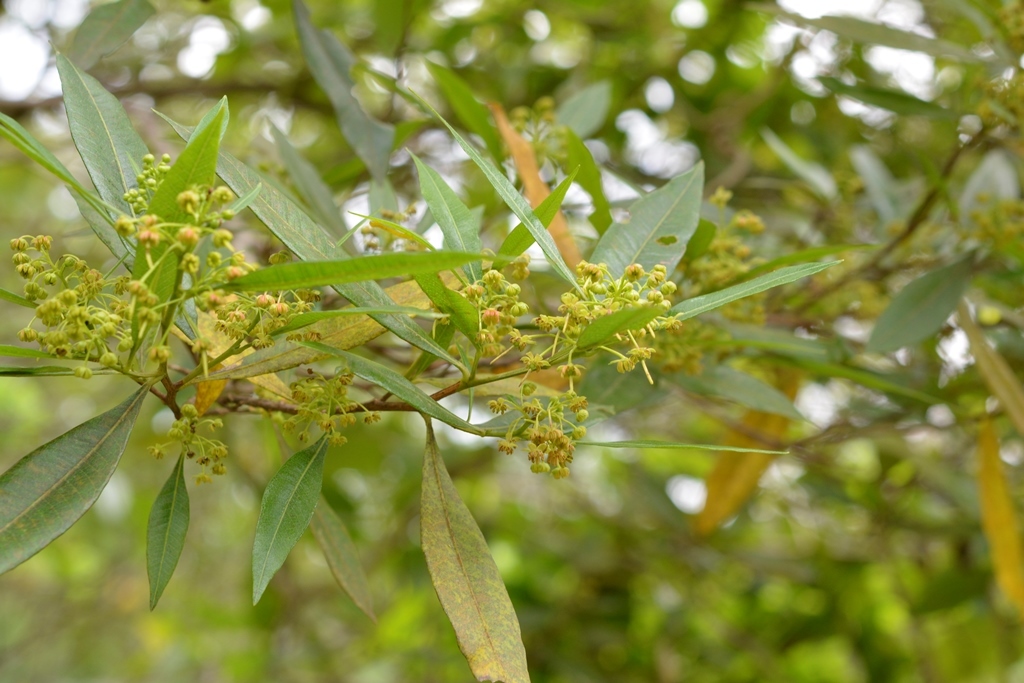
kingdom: Plantae
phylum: Tracheophyta
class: Magnoliopsida
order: Sapindales
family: Sapindaceae
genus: Dodonaea
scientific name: Dodonaea viscosa
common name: Hopbush
